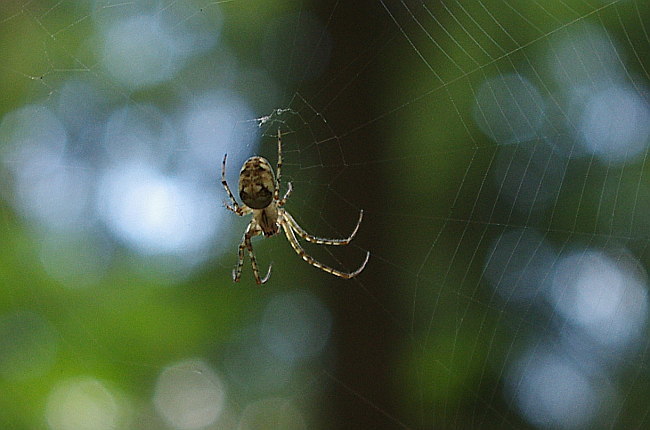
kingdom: Animalia
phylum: Arthropoda
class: Arachnida
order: Araneae
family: Tetragnathidae
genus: Metellina
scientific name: Metellina
